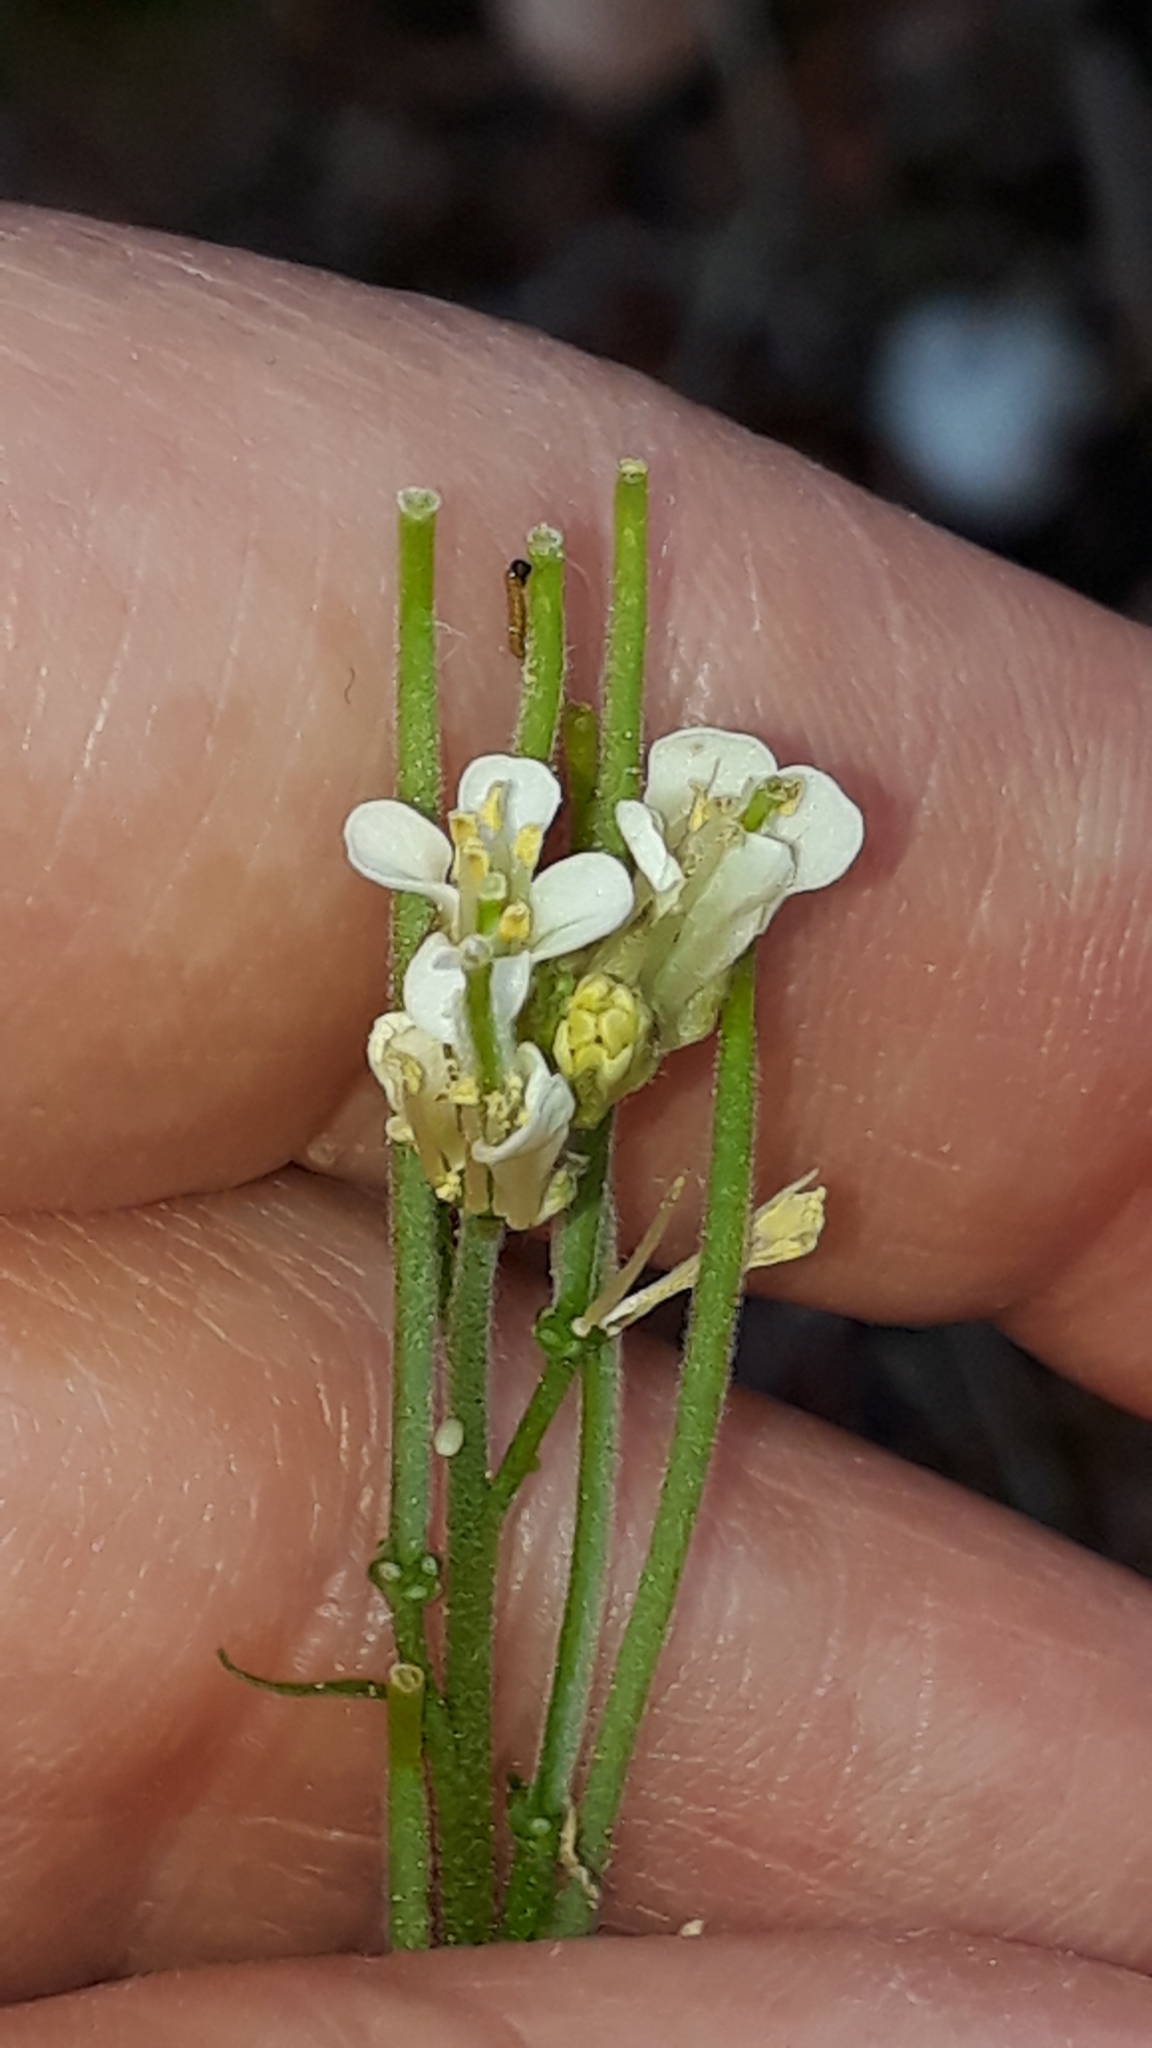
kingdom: Plantae
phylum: Tracheophyta
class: Magnoliopsida
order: Brassicales
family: Brassicaceae
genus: Pseudoturritis
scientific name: Pseudoturritis turrita
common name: Tower cress
